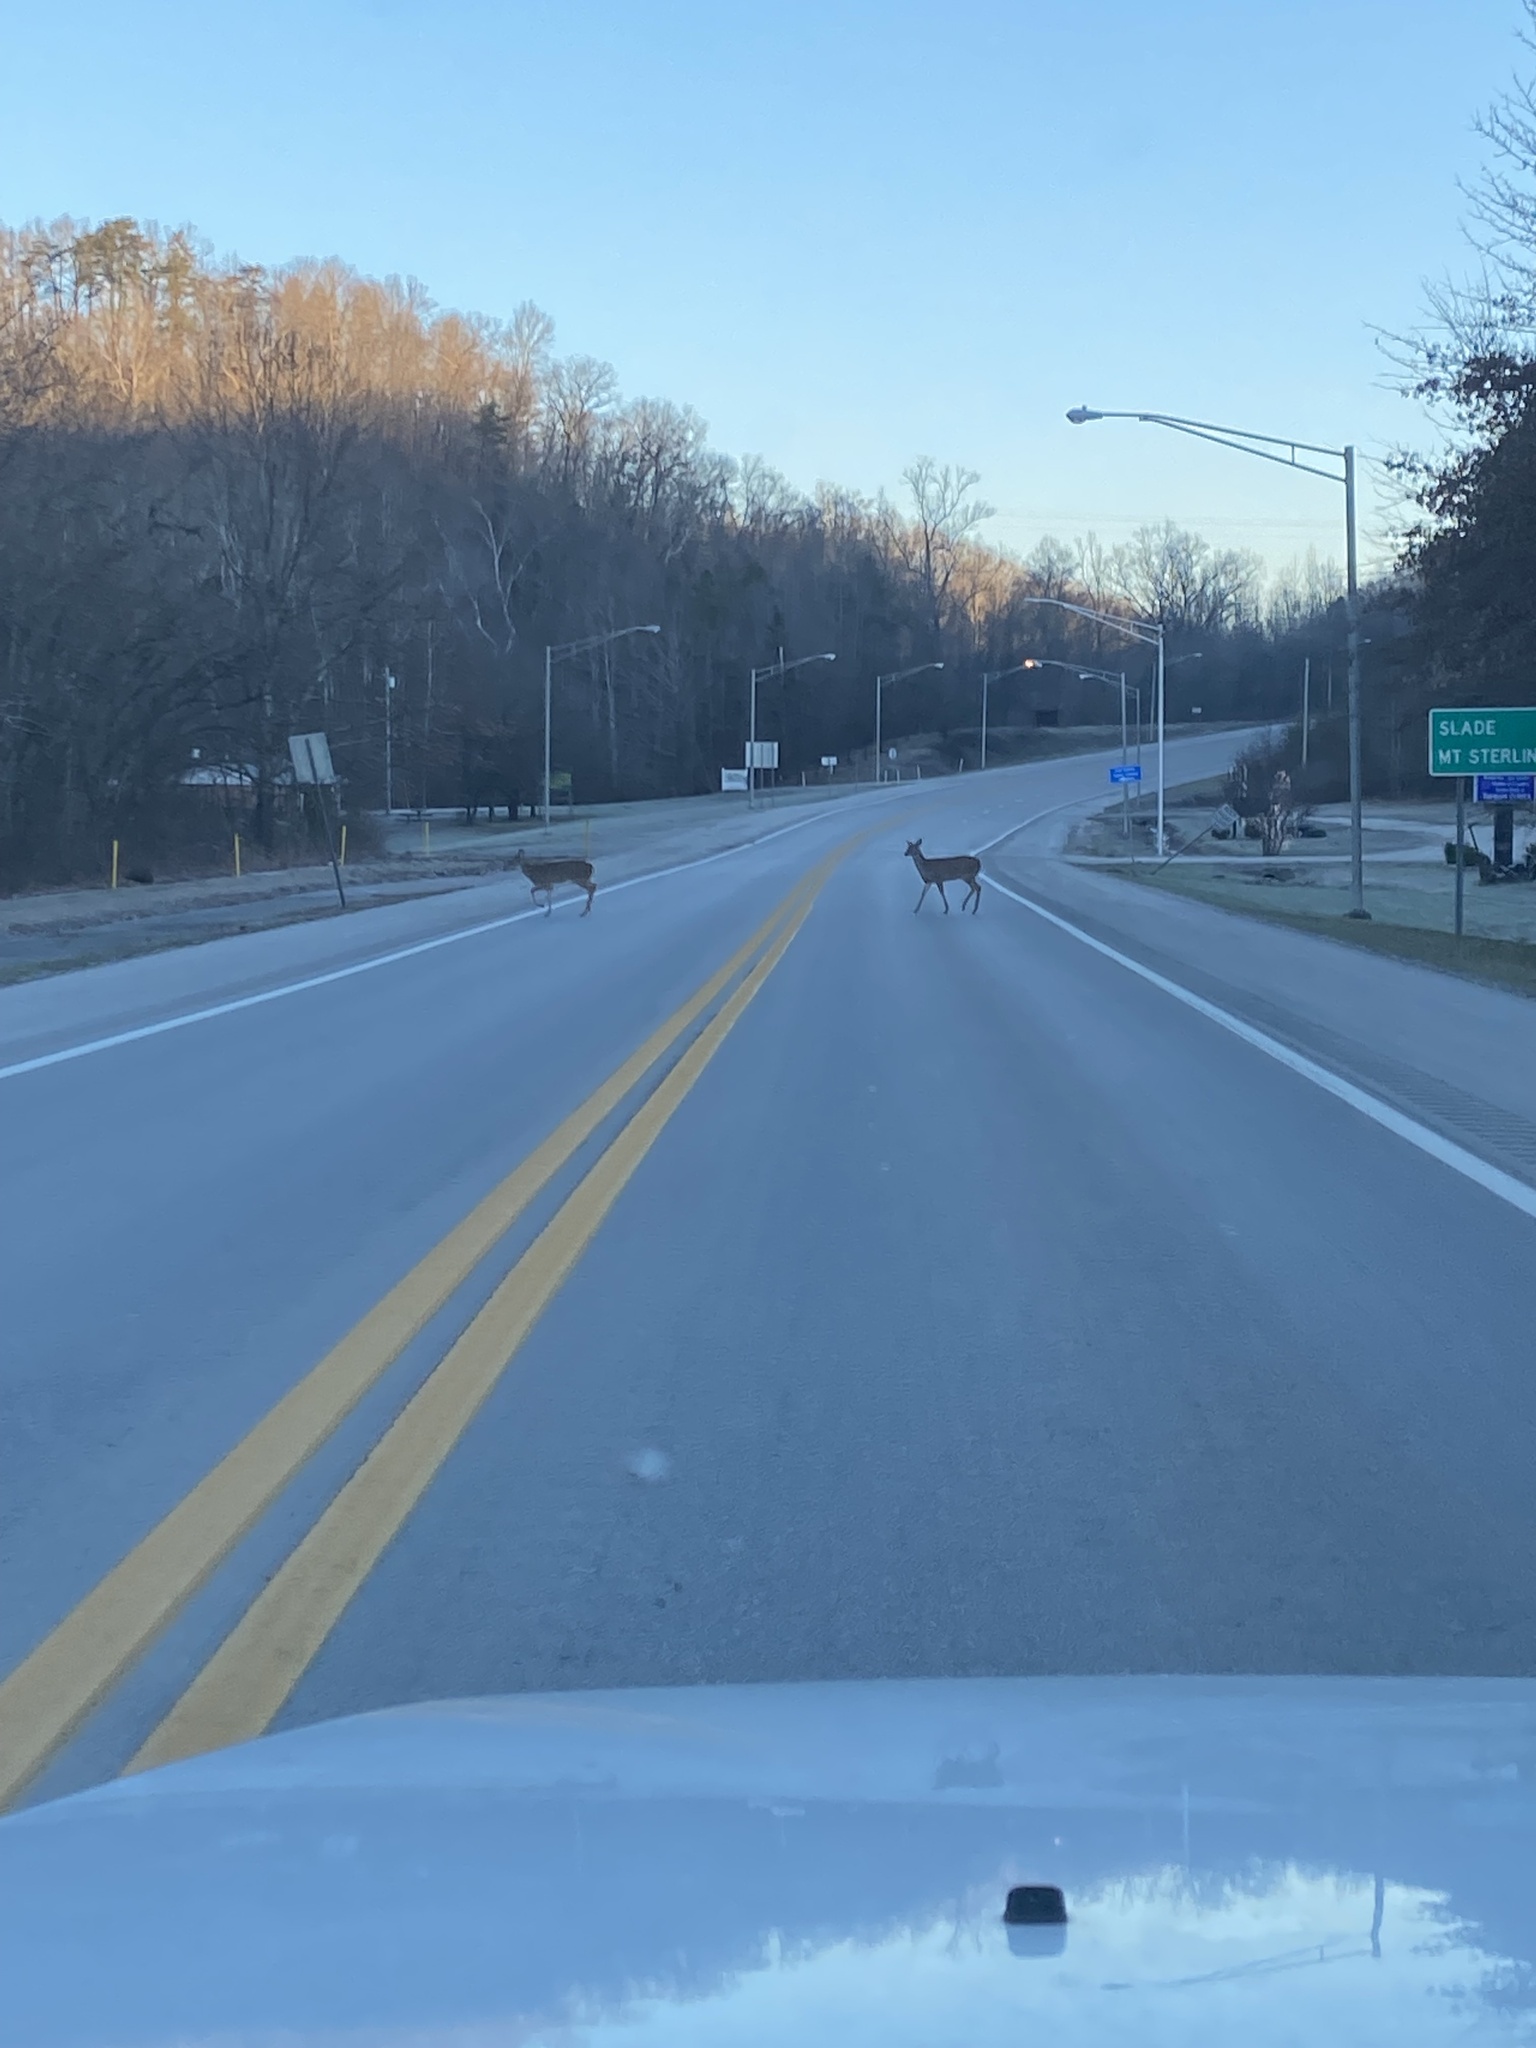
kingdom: Animalia
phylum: Chordata
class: Mammalia
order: Artiodactyla
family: Cervidae
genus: Odocoileus
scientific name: Odocoileus virginianus
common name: White-tailed deer
